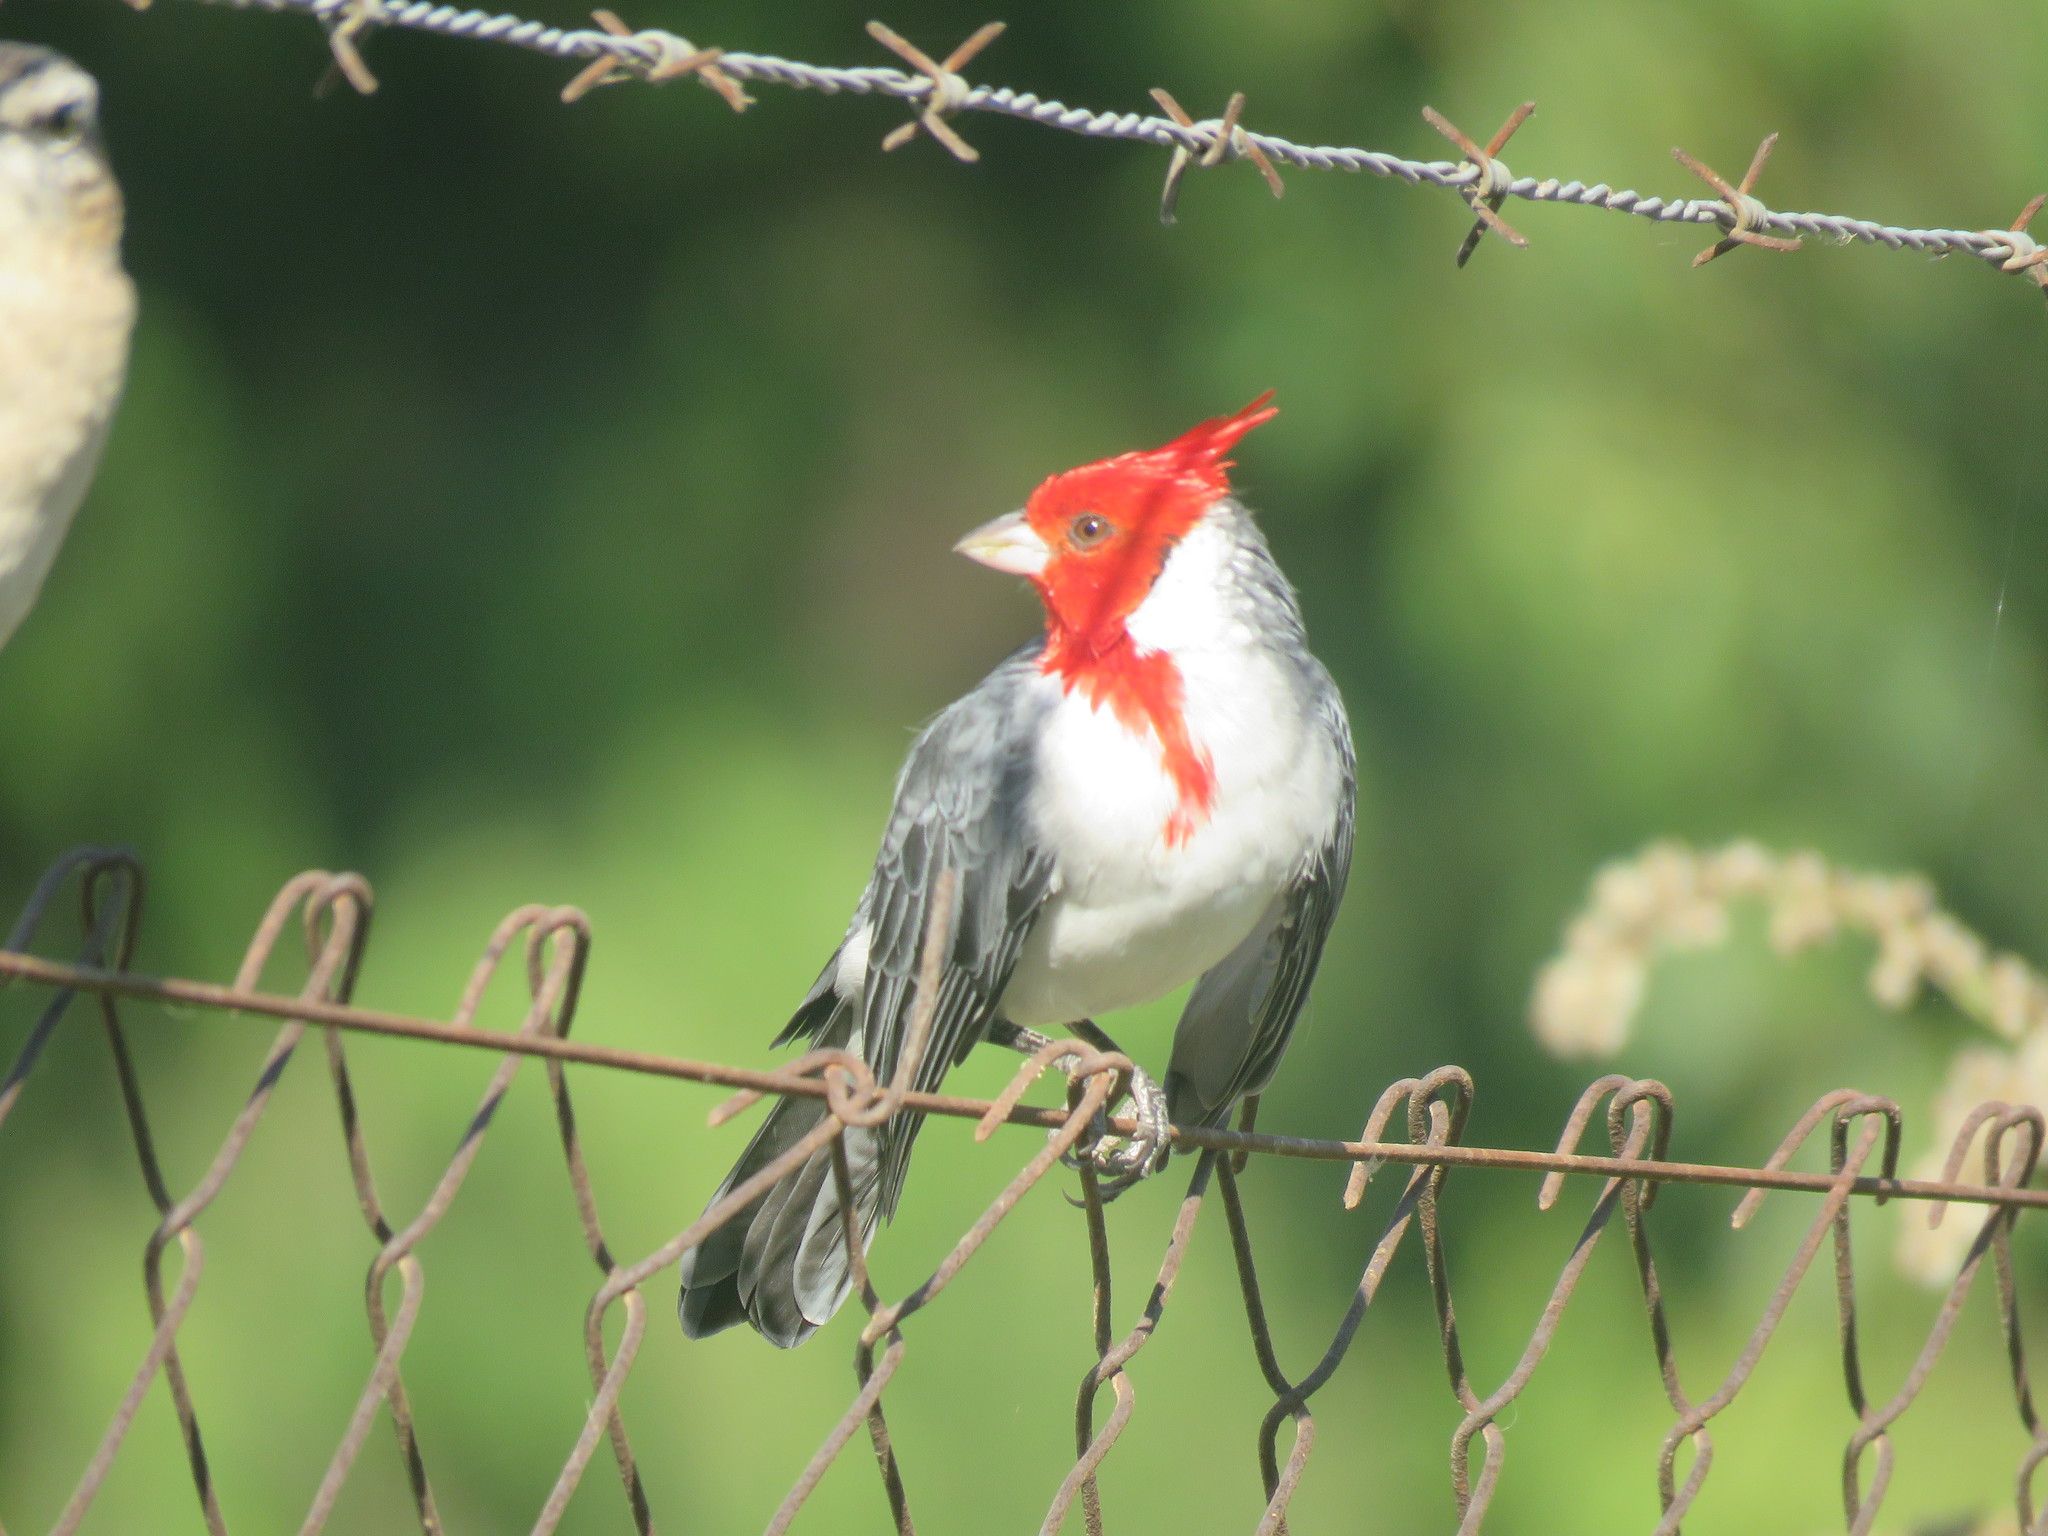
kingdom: Animalia
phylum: Chordata
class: Aves
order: Passeriformes
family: Thraupidae
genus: Paroaria
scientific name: Paroaria coronata
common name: Red-crested cardinal
